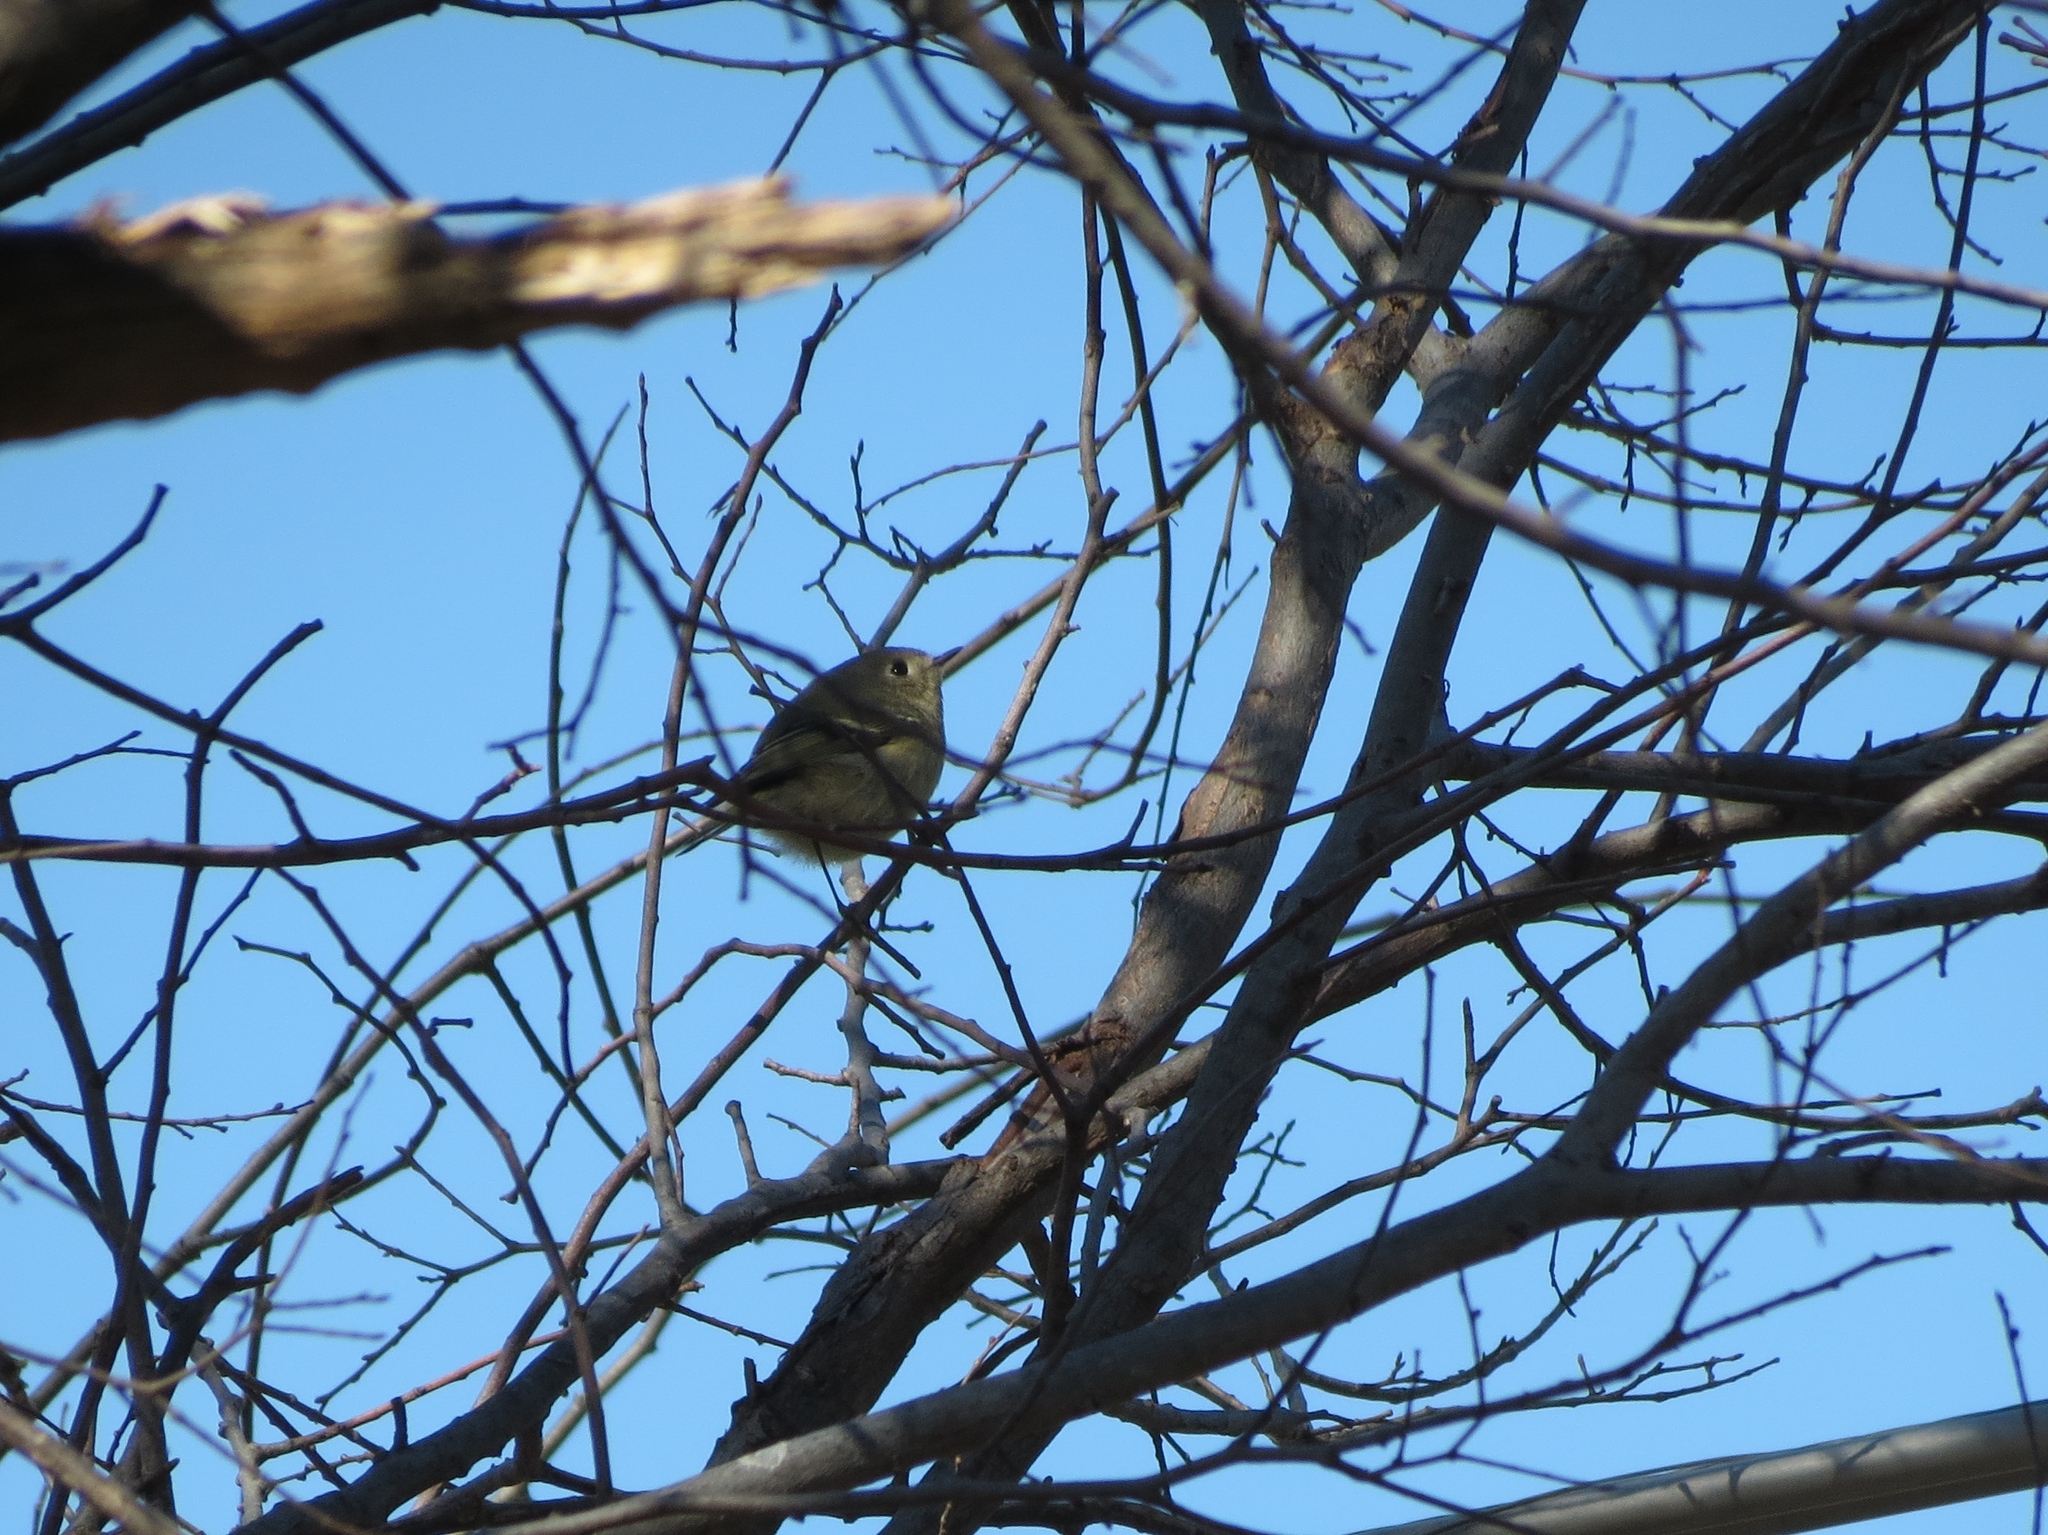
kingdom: Animalia
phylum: Chordata
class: Aves
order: Passeriformes
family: Regulidae
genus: Regulus
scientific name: Regulus calendula
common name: Ruby-crowned kinglet
